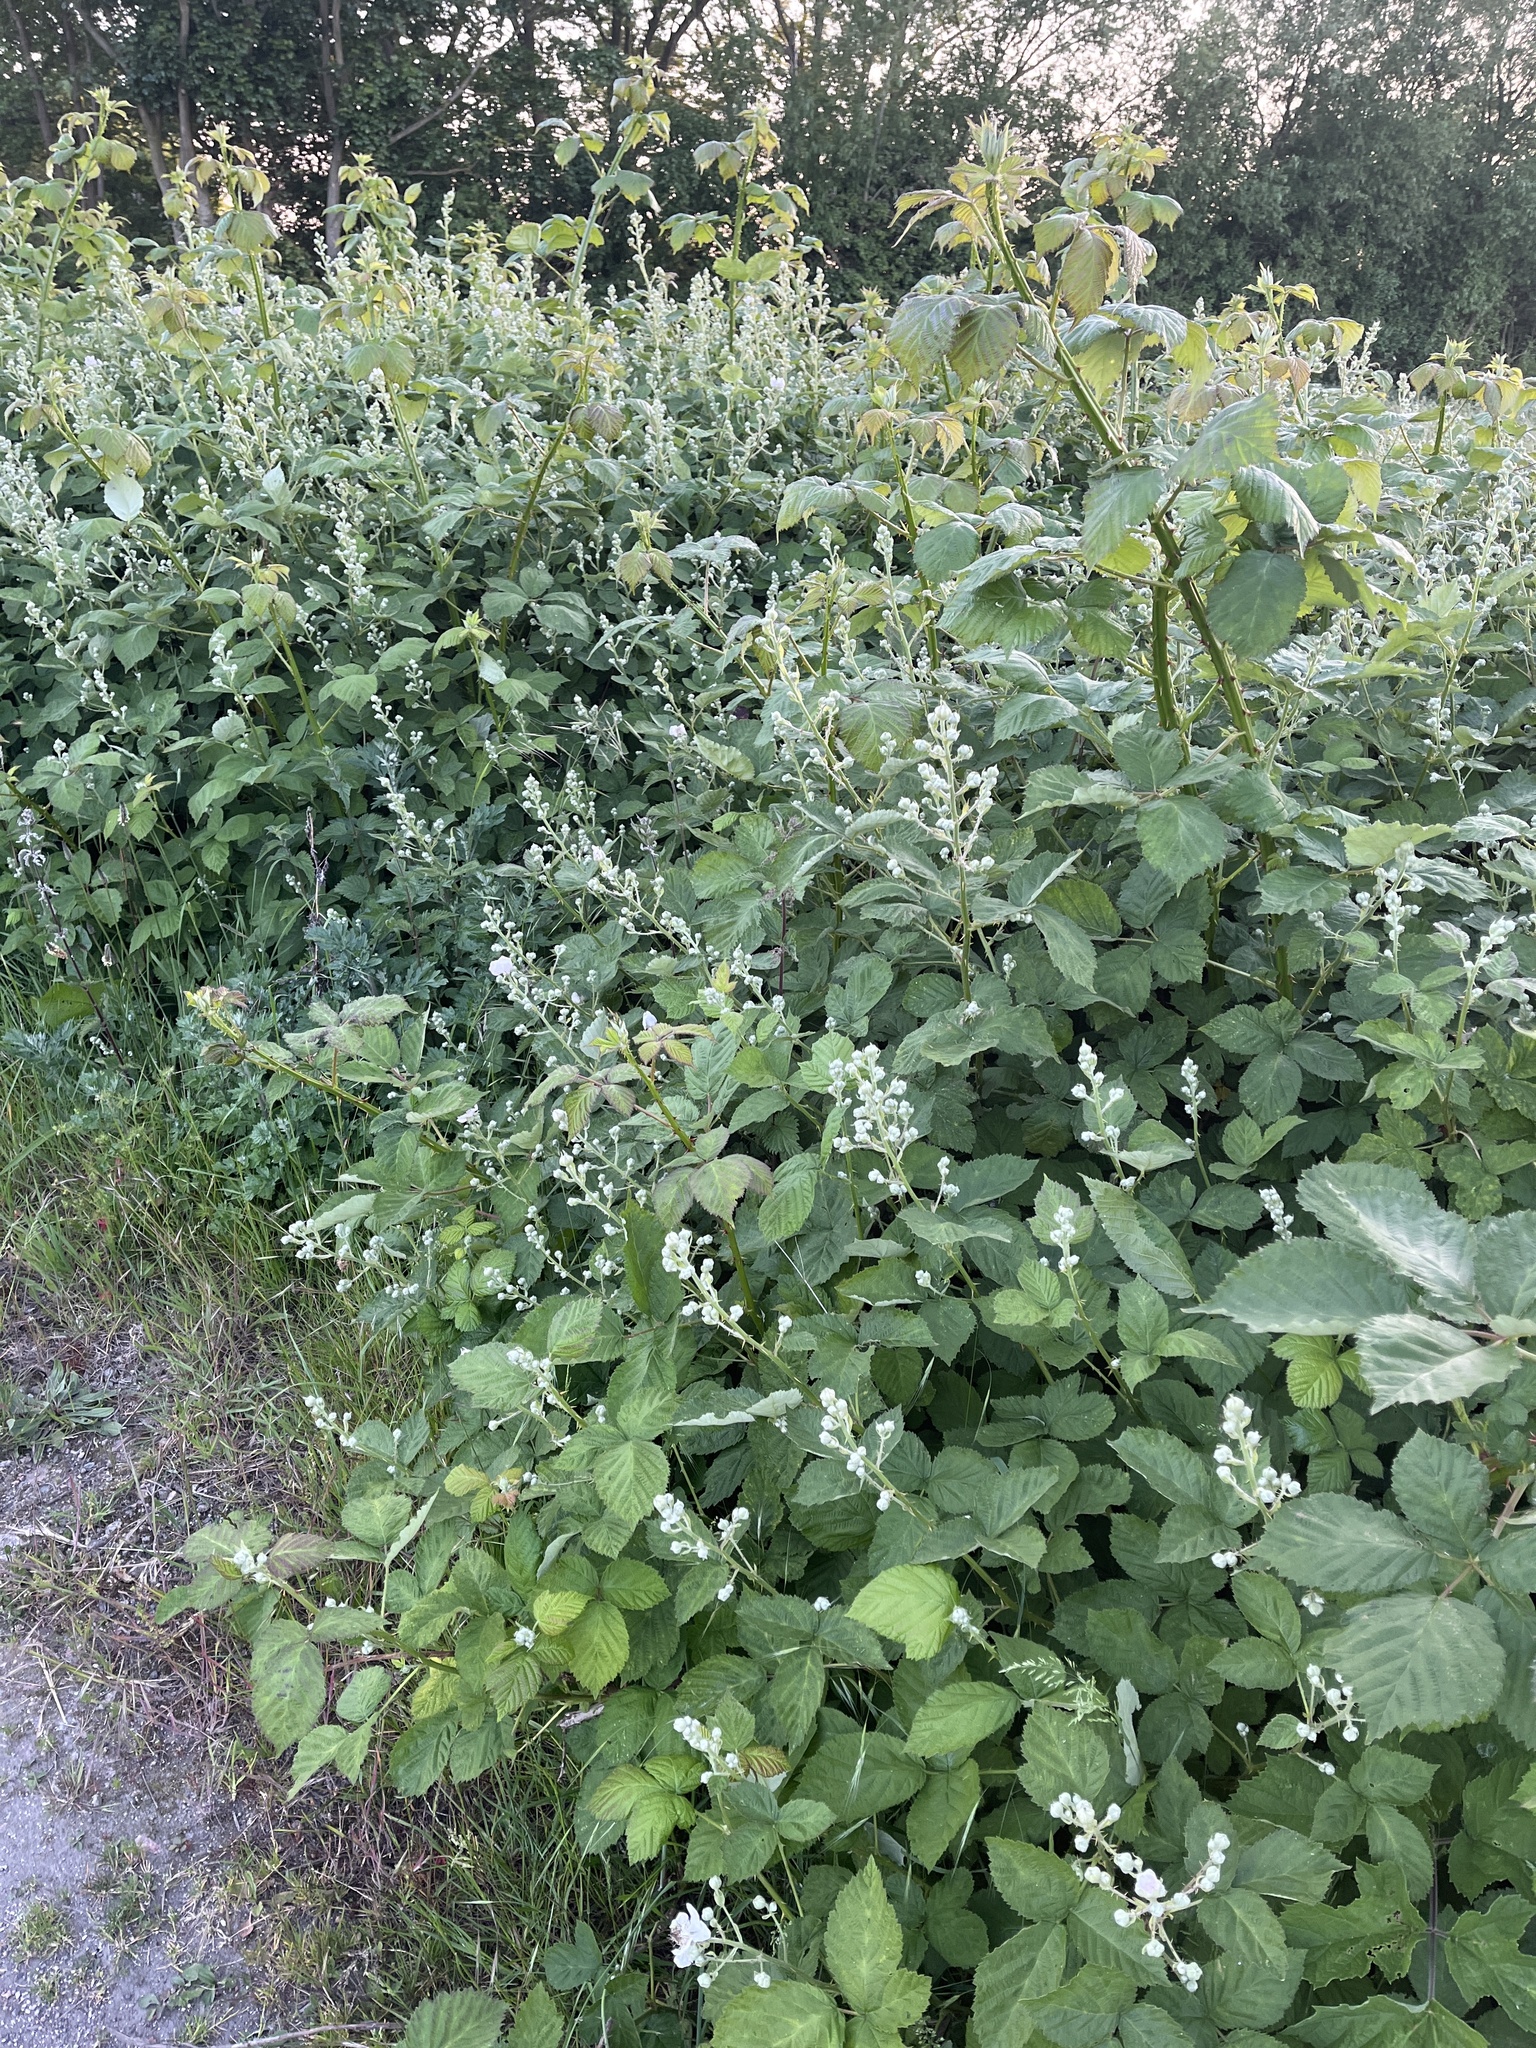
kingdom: Plantae
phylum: Tracheophyta
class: Magnoliopsida
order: Rosales
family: Rosaceae
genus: Rubus
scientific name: Rubus armeniacus
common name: Himalayan blackberry
